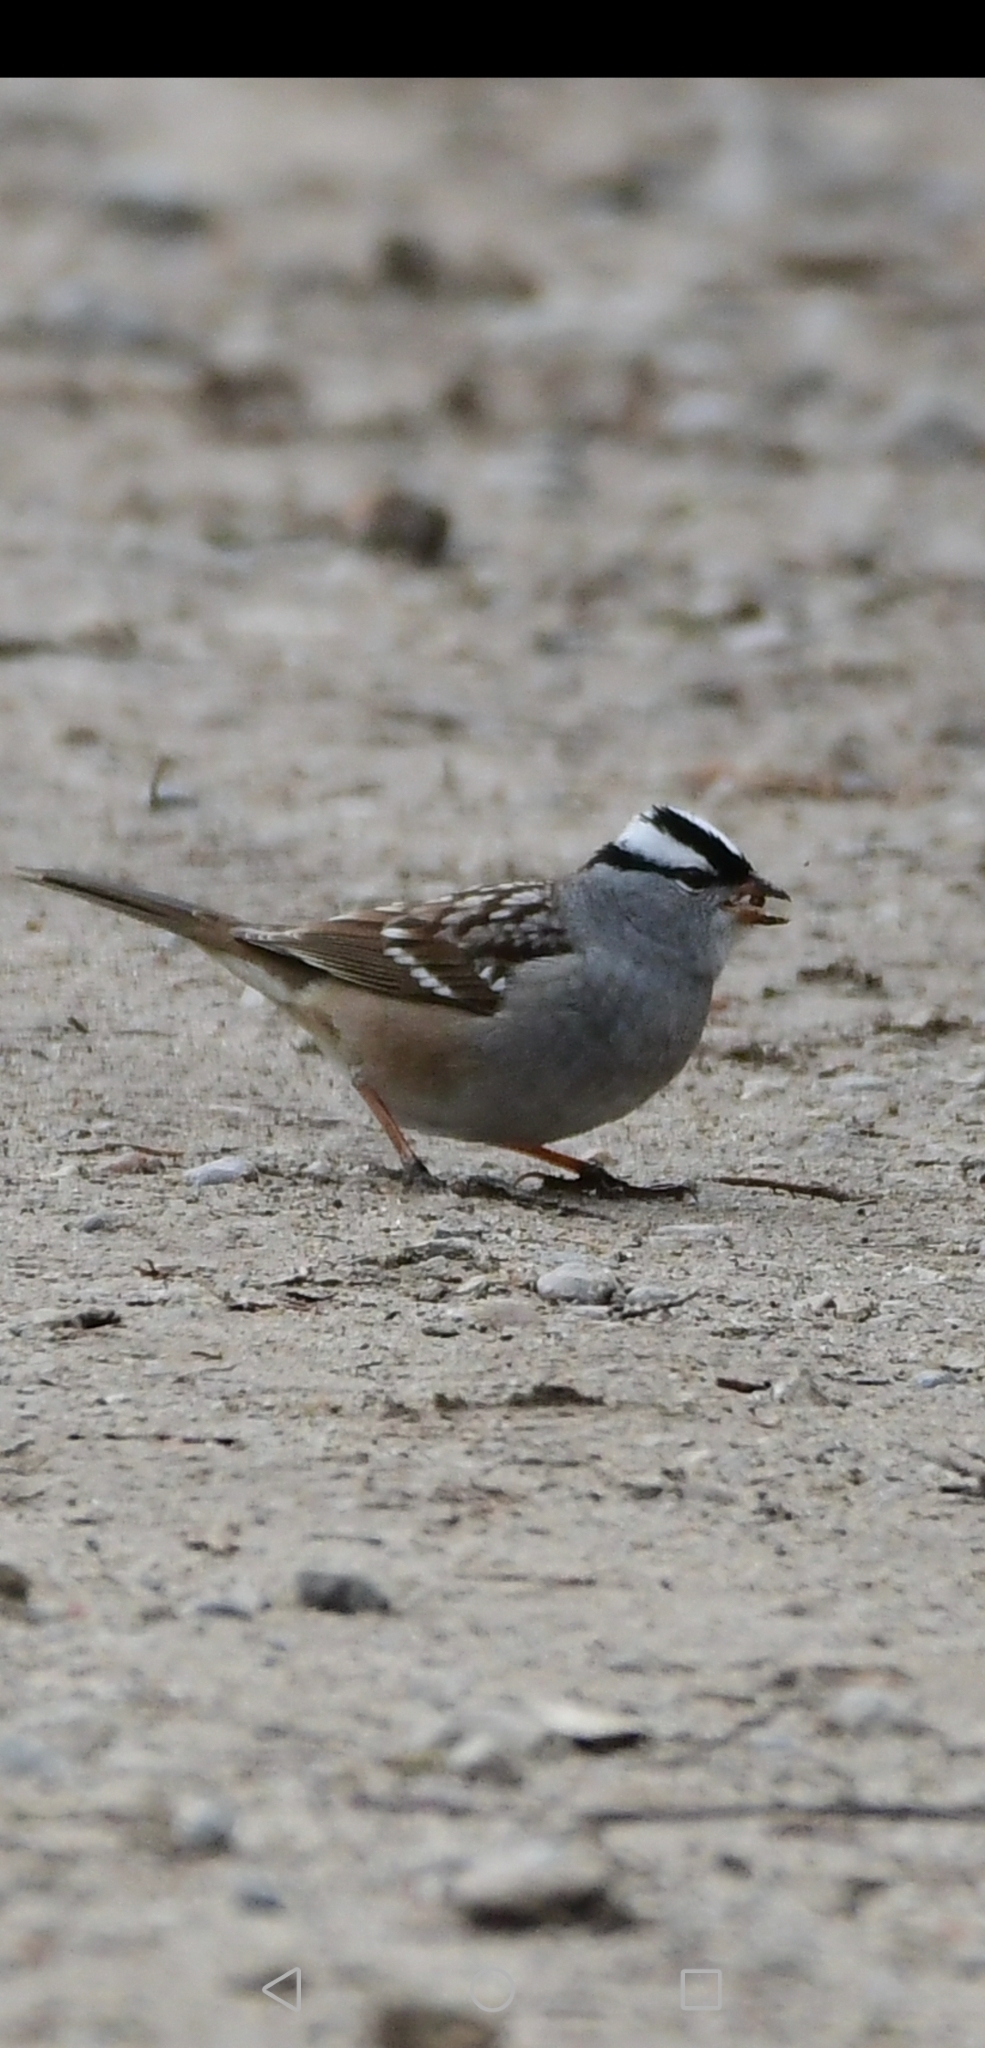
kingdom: Animalia
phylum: Chordata
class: Aves
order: Passeriformes
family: Passerellidae
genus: Zonotrichia
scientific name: Zonotrichia leucophrys
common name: White-crowned sparrow
